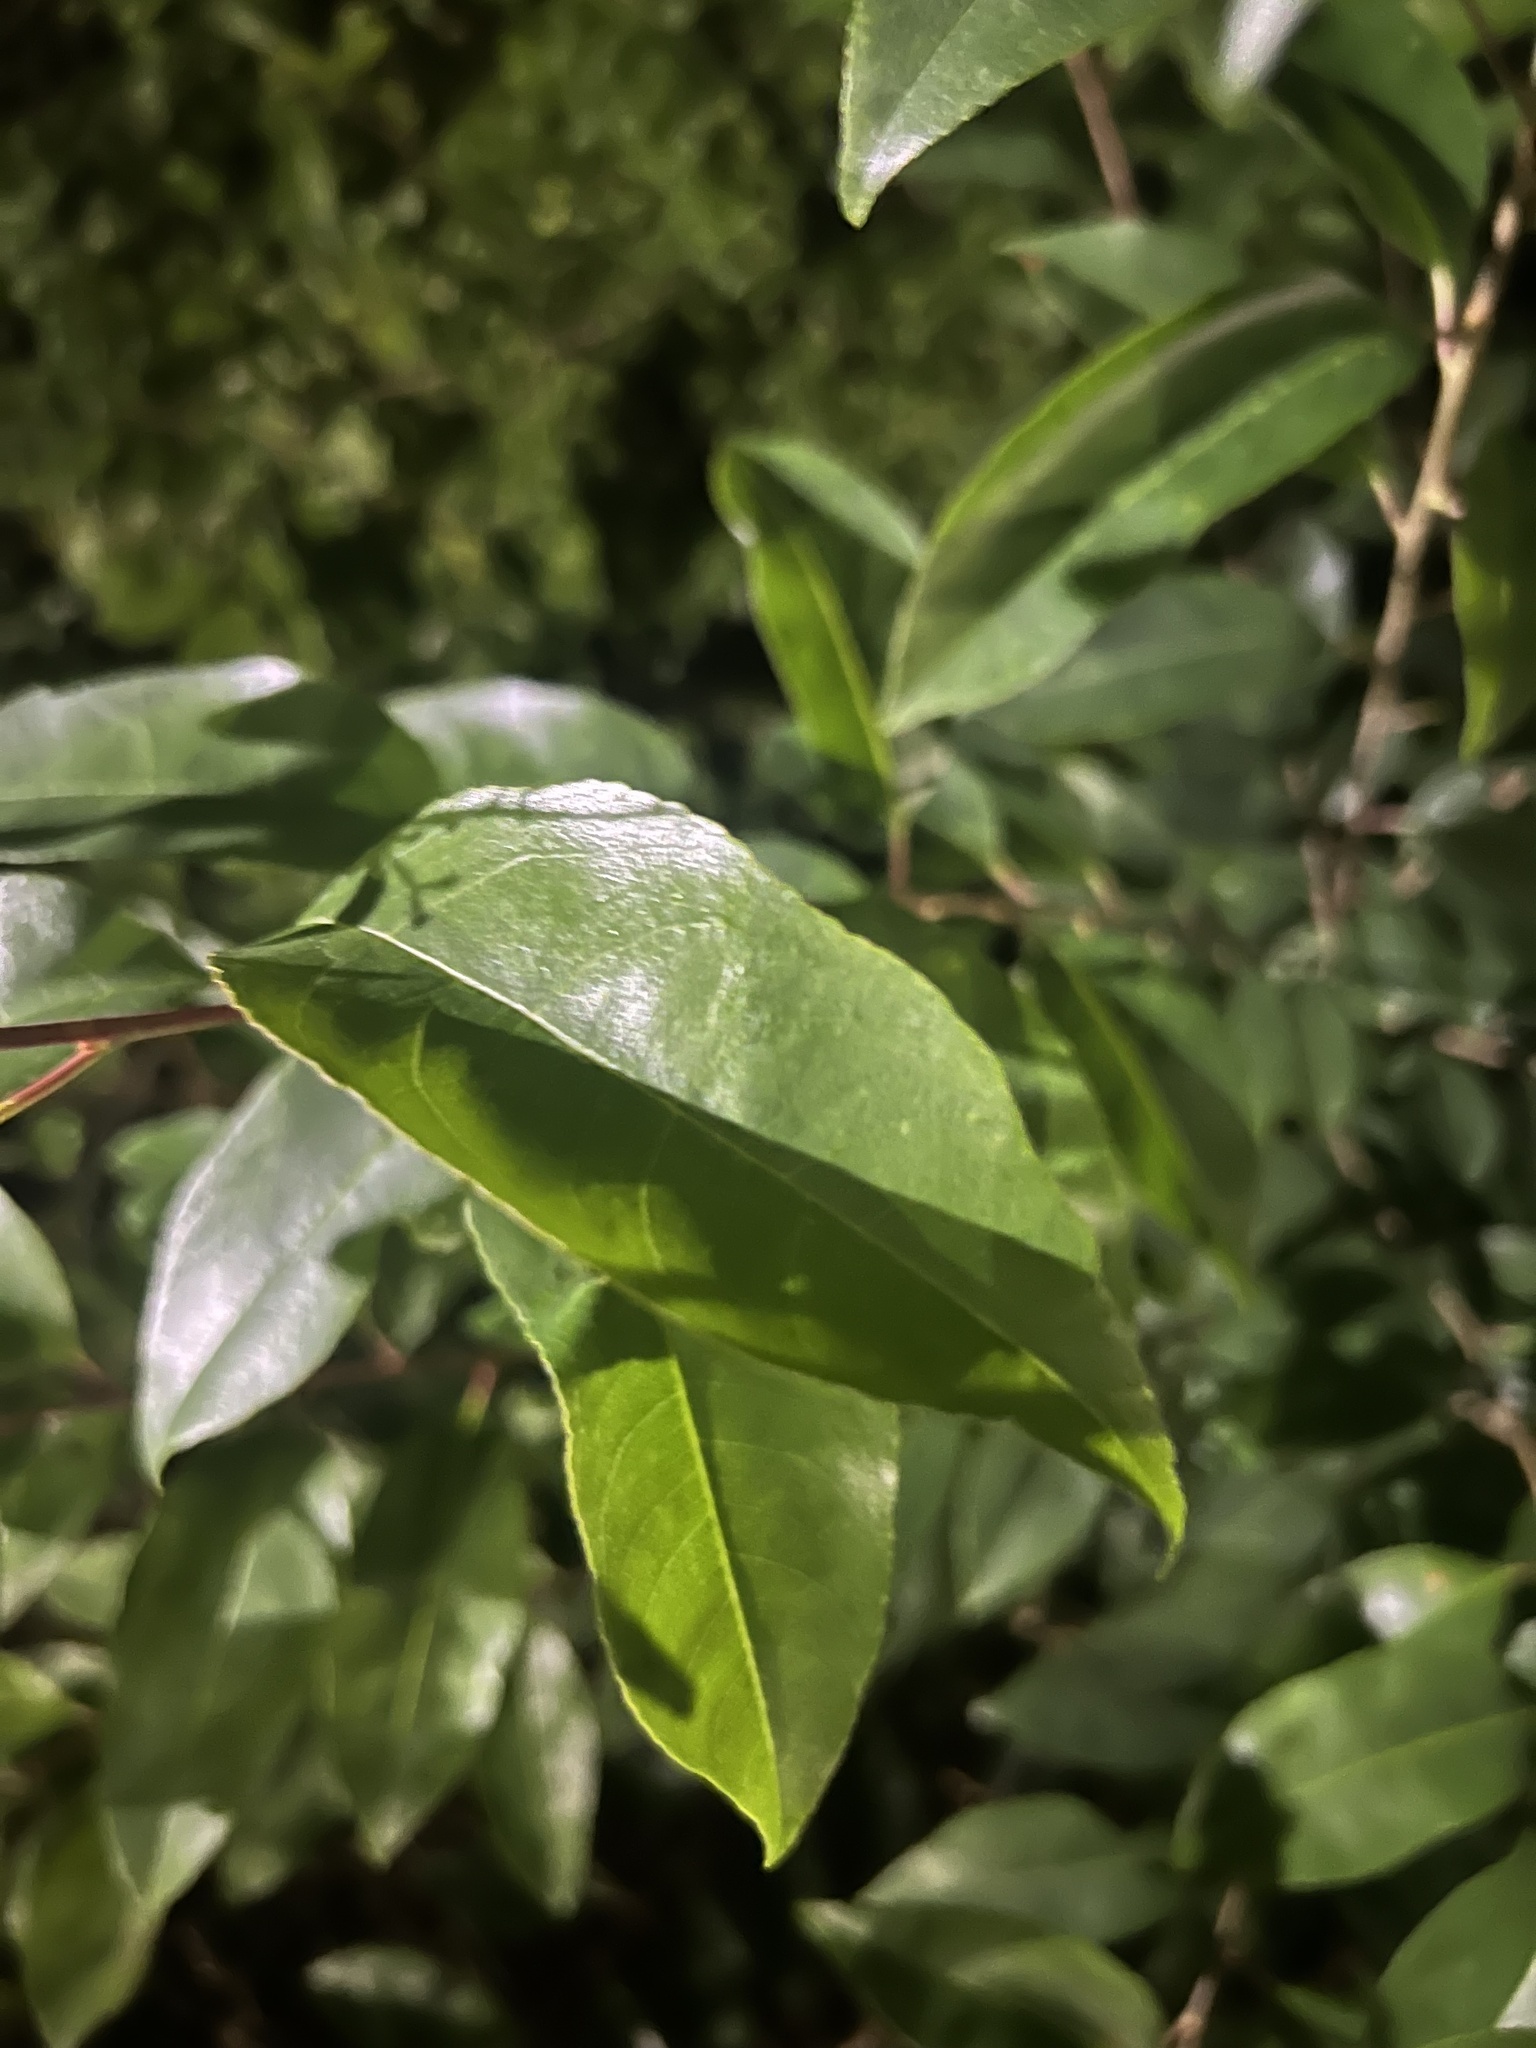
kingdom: Plantae
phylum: Tracheophyta
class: Magnoliopsida
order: Rosales
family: Rosaceae
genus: Prunus
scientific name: Prunus caroliniana
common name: Carolina laurel cherry
